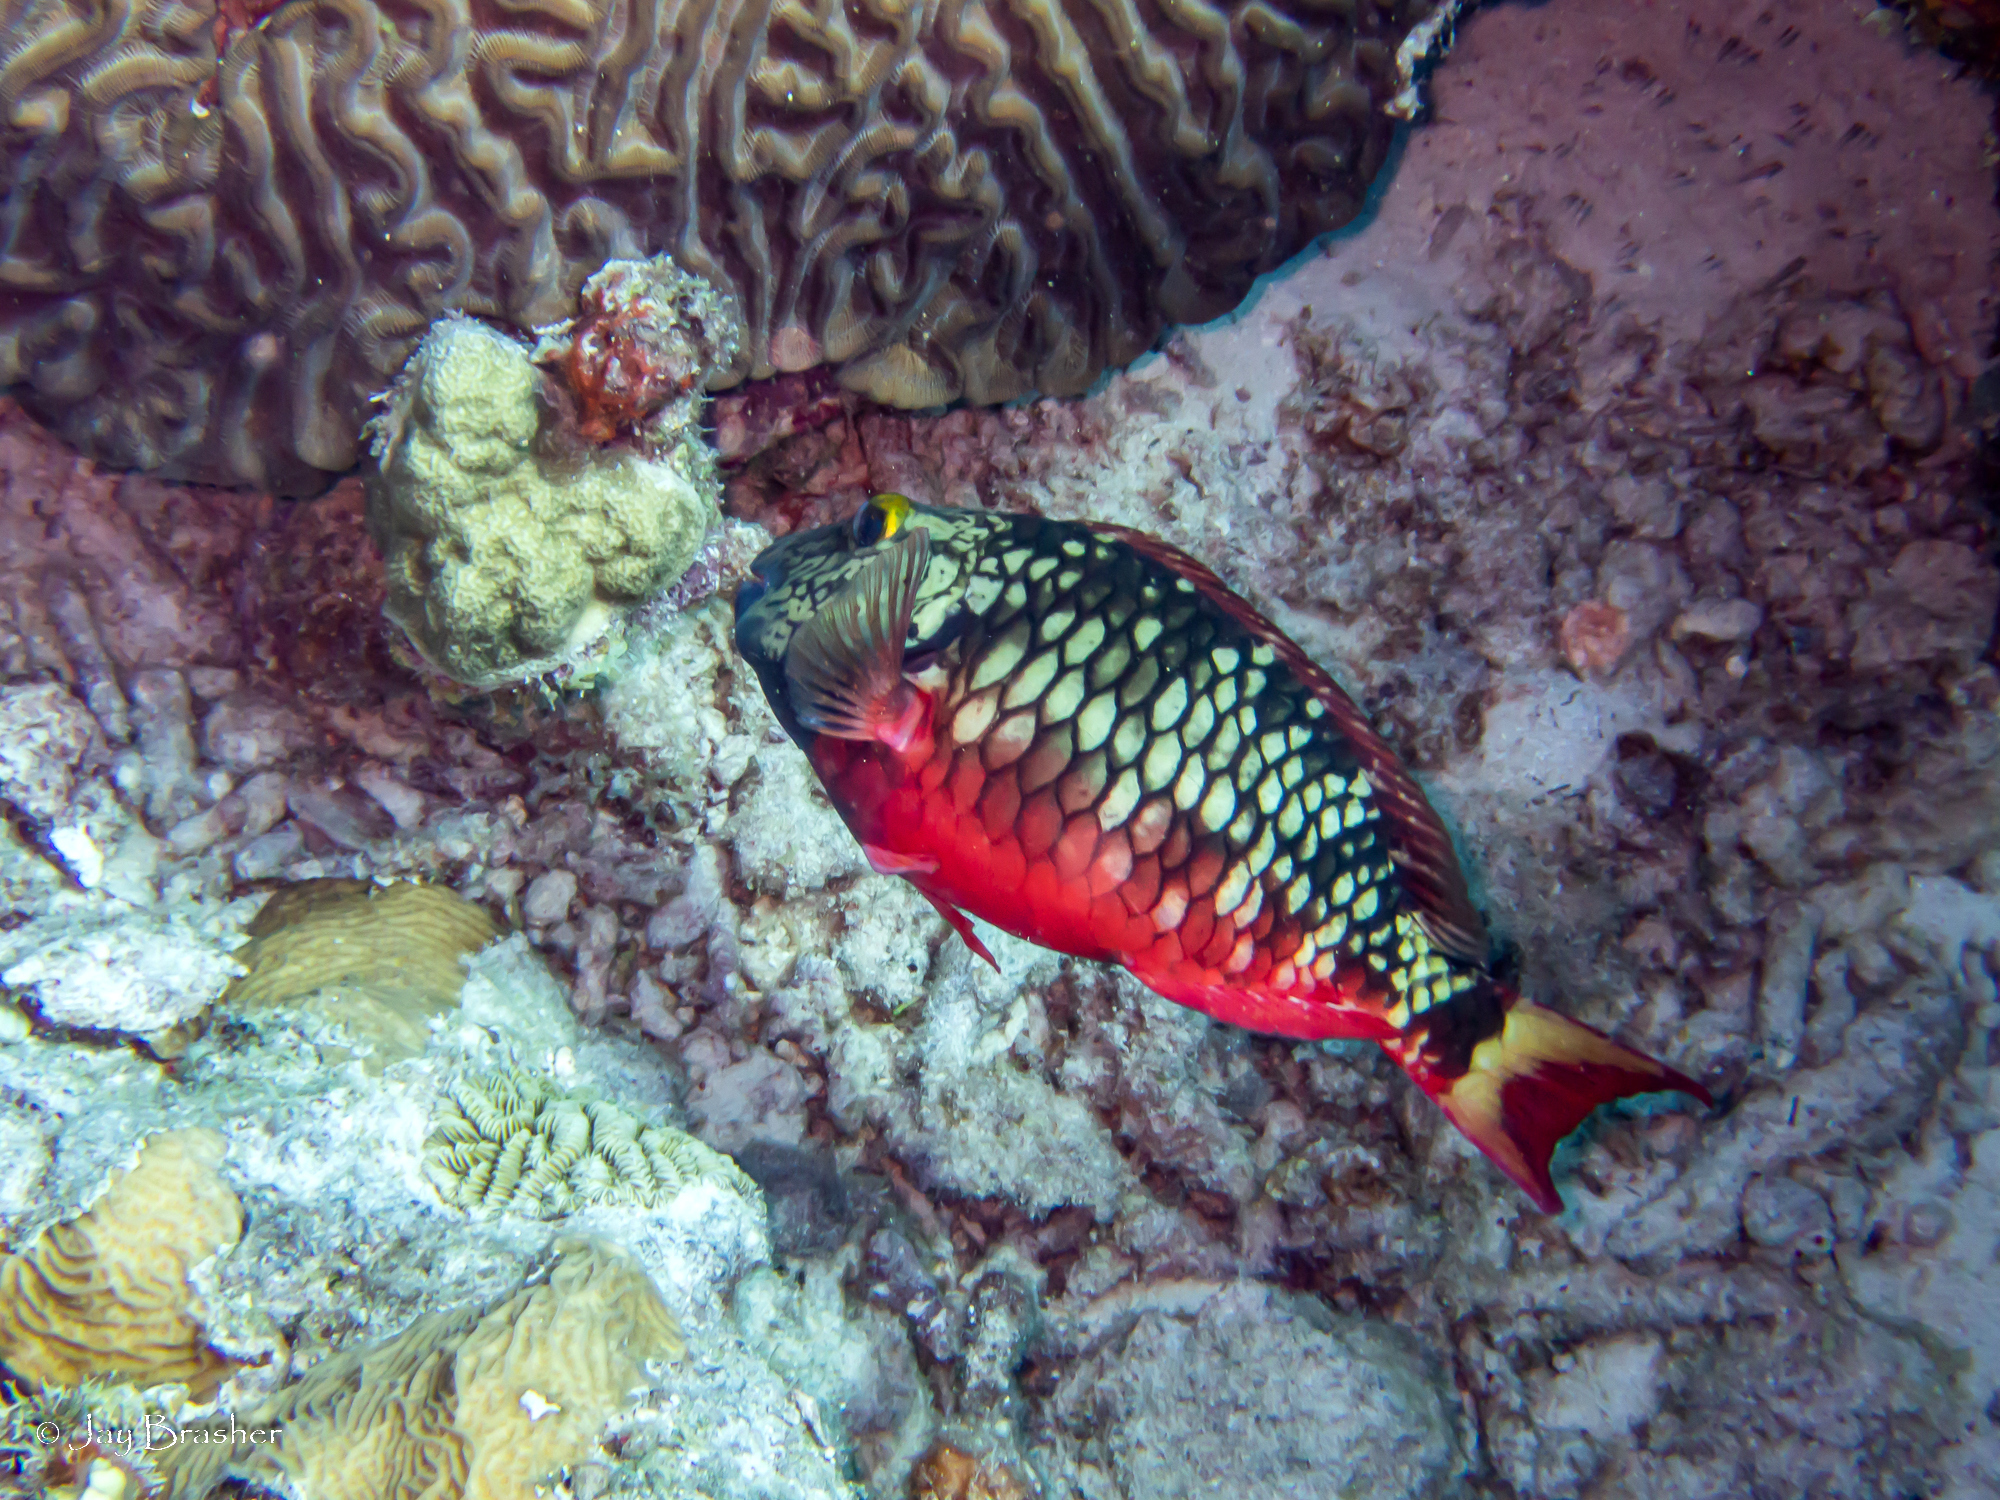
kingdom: Animalia
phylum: Chordata
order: Perciformes
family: Scaridae
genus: Sparisoma
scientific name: Sparisoma viride
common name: Stoplight parrotfish
